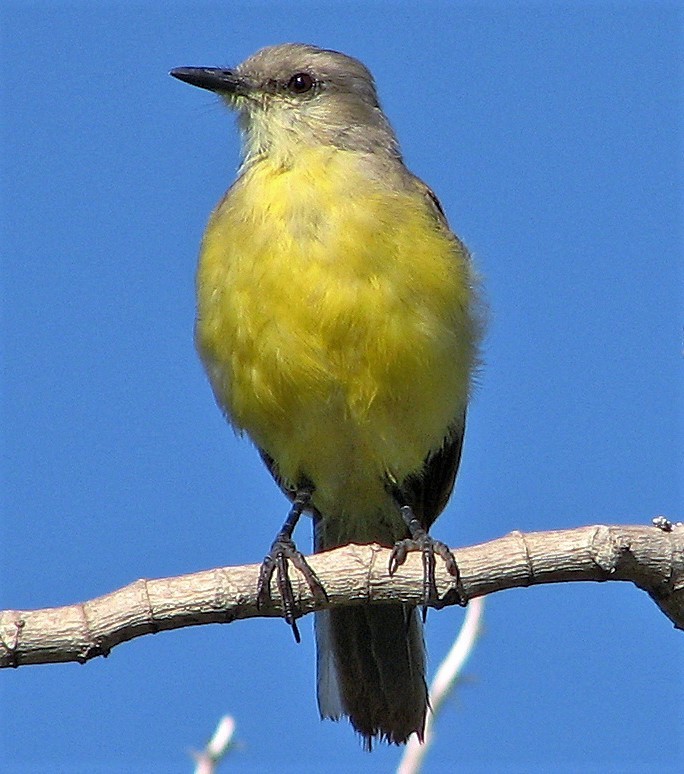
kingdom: Animalia
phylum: Chordata
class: Aves
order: Passeriformes
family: Tyrannidae
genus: Machetornis
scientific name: Machetornis rixosa
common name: Cattle tyrant
